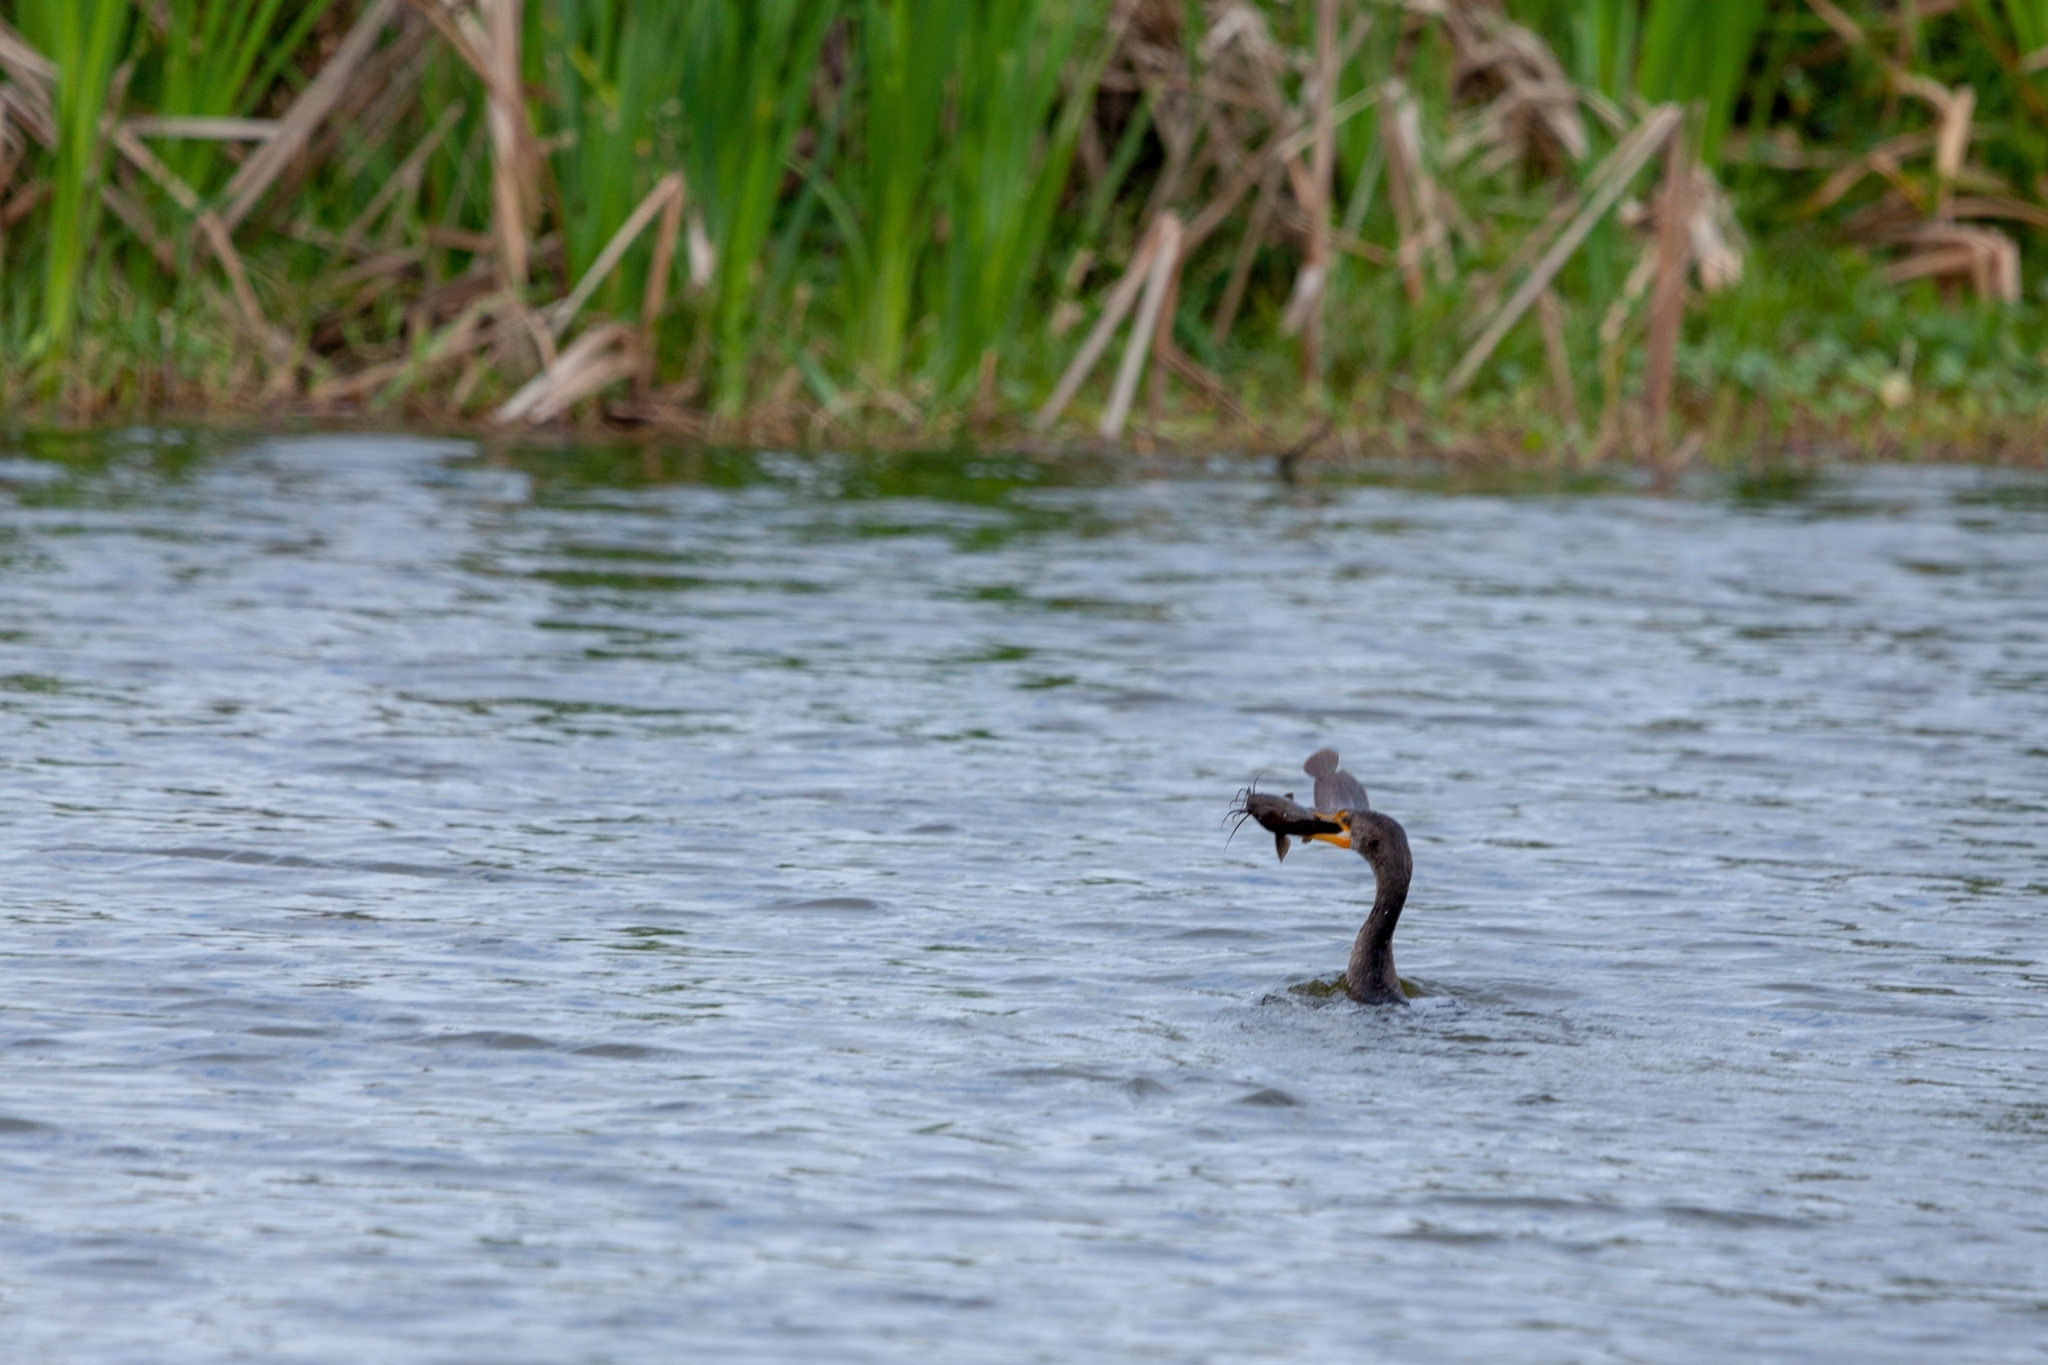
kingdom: Animalia
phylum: Chordata
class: Aves
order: Suliformes
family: Phalacrocoracidae
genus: Phalacrocorax
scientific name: Phalacrocorax auritus
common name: Double-crested cormorant
